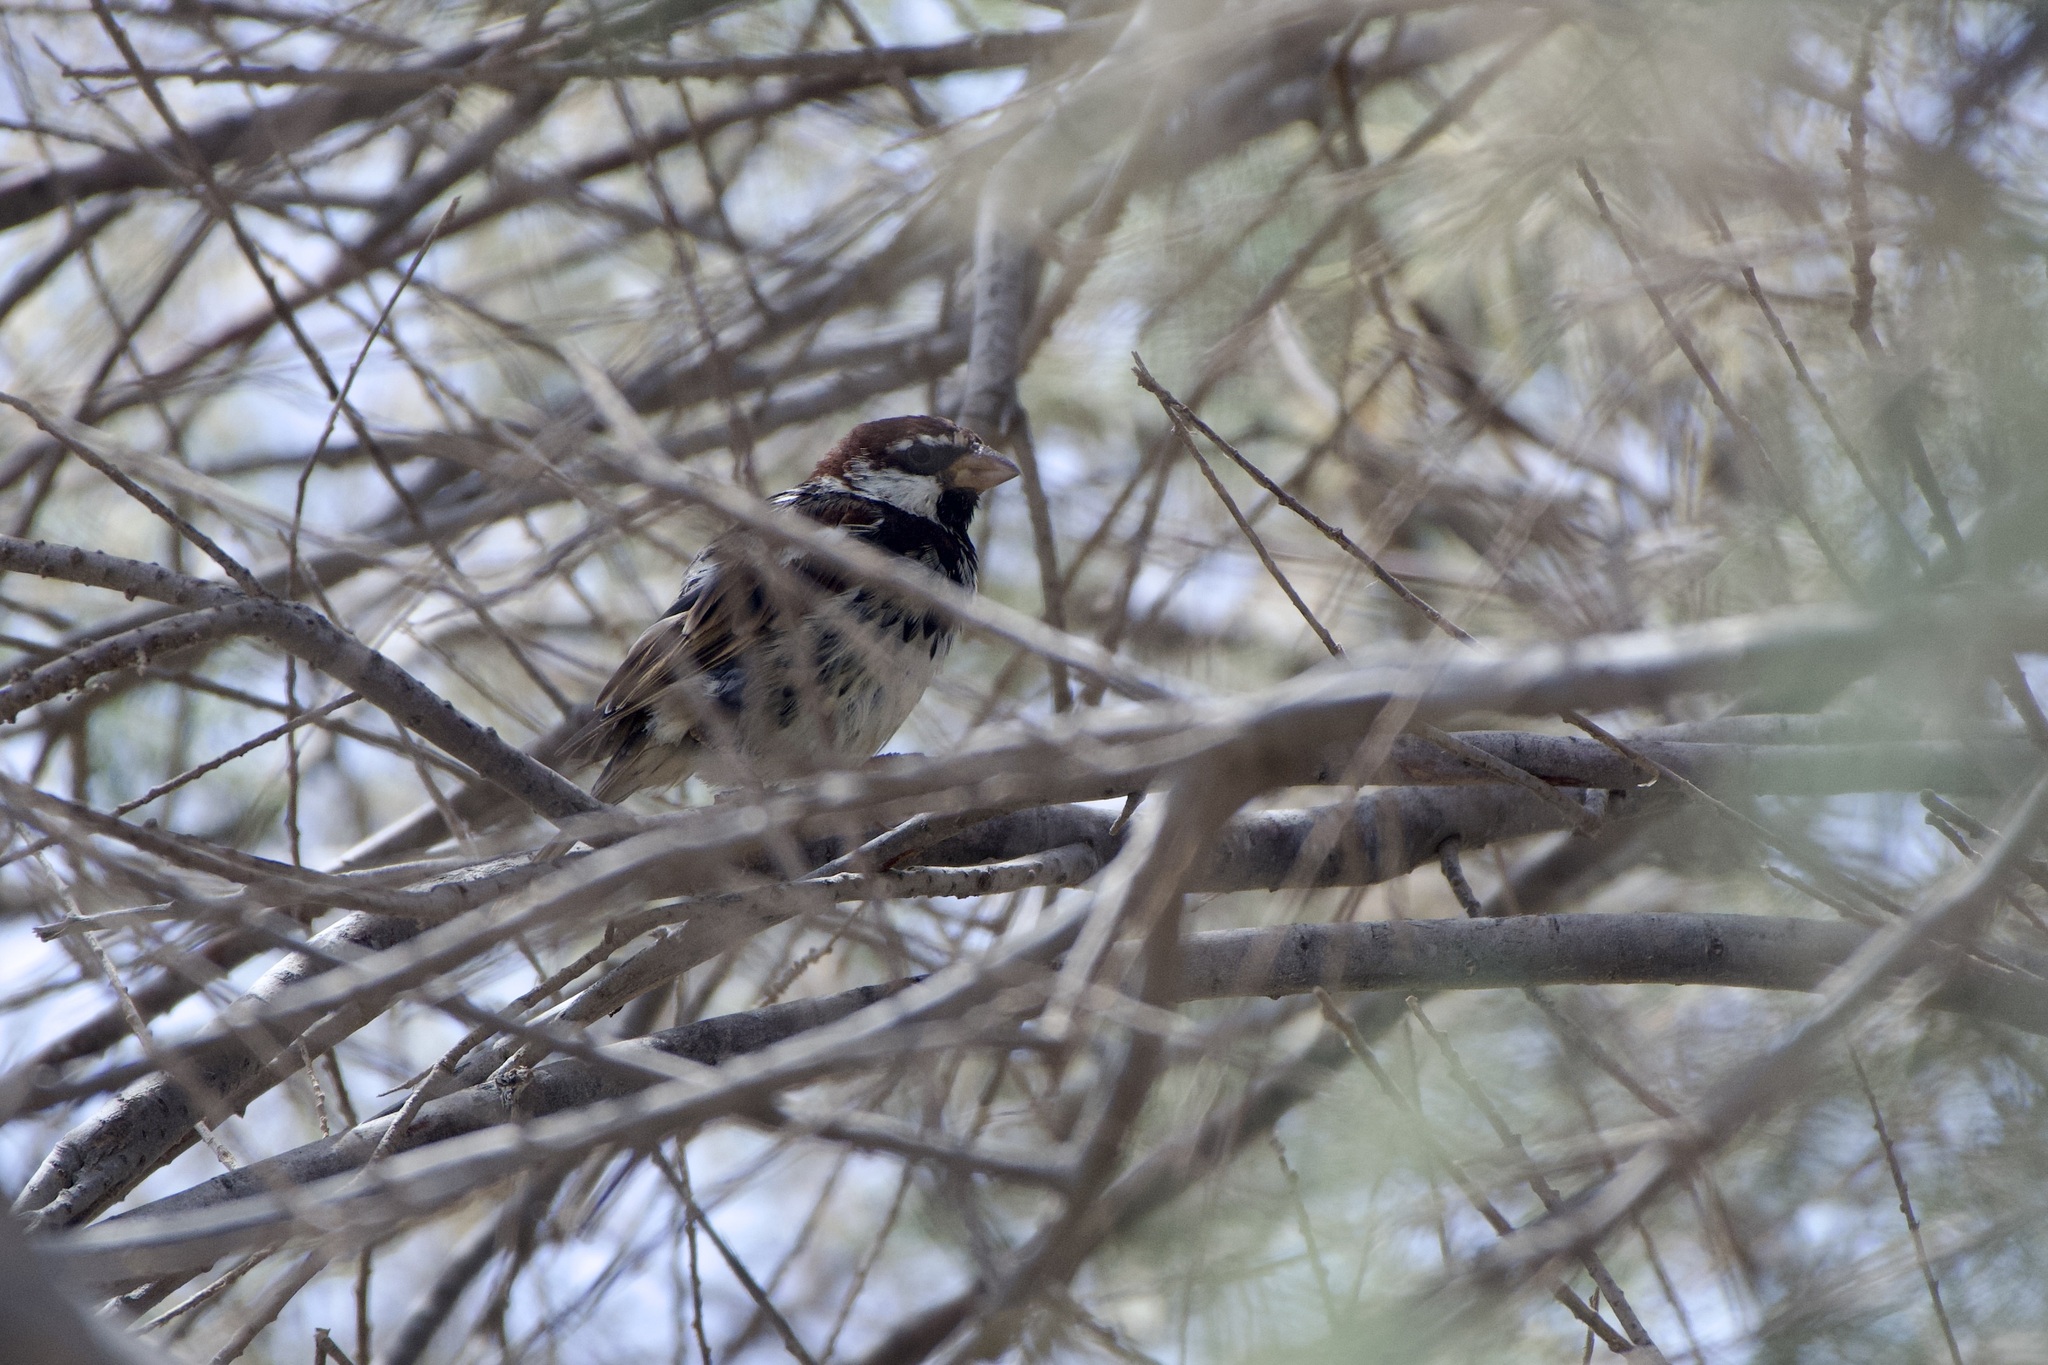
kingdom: Animalia
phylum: Chordata
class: Aves
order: Passeriformes
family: Passeridae
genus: Passer
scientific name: Passer hispaniolensis
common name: Spanish sparrow
